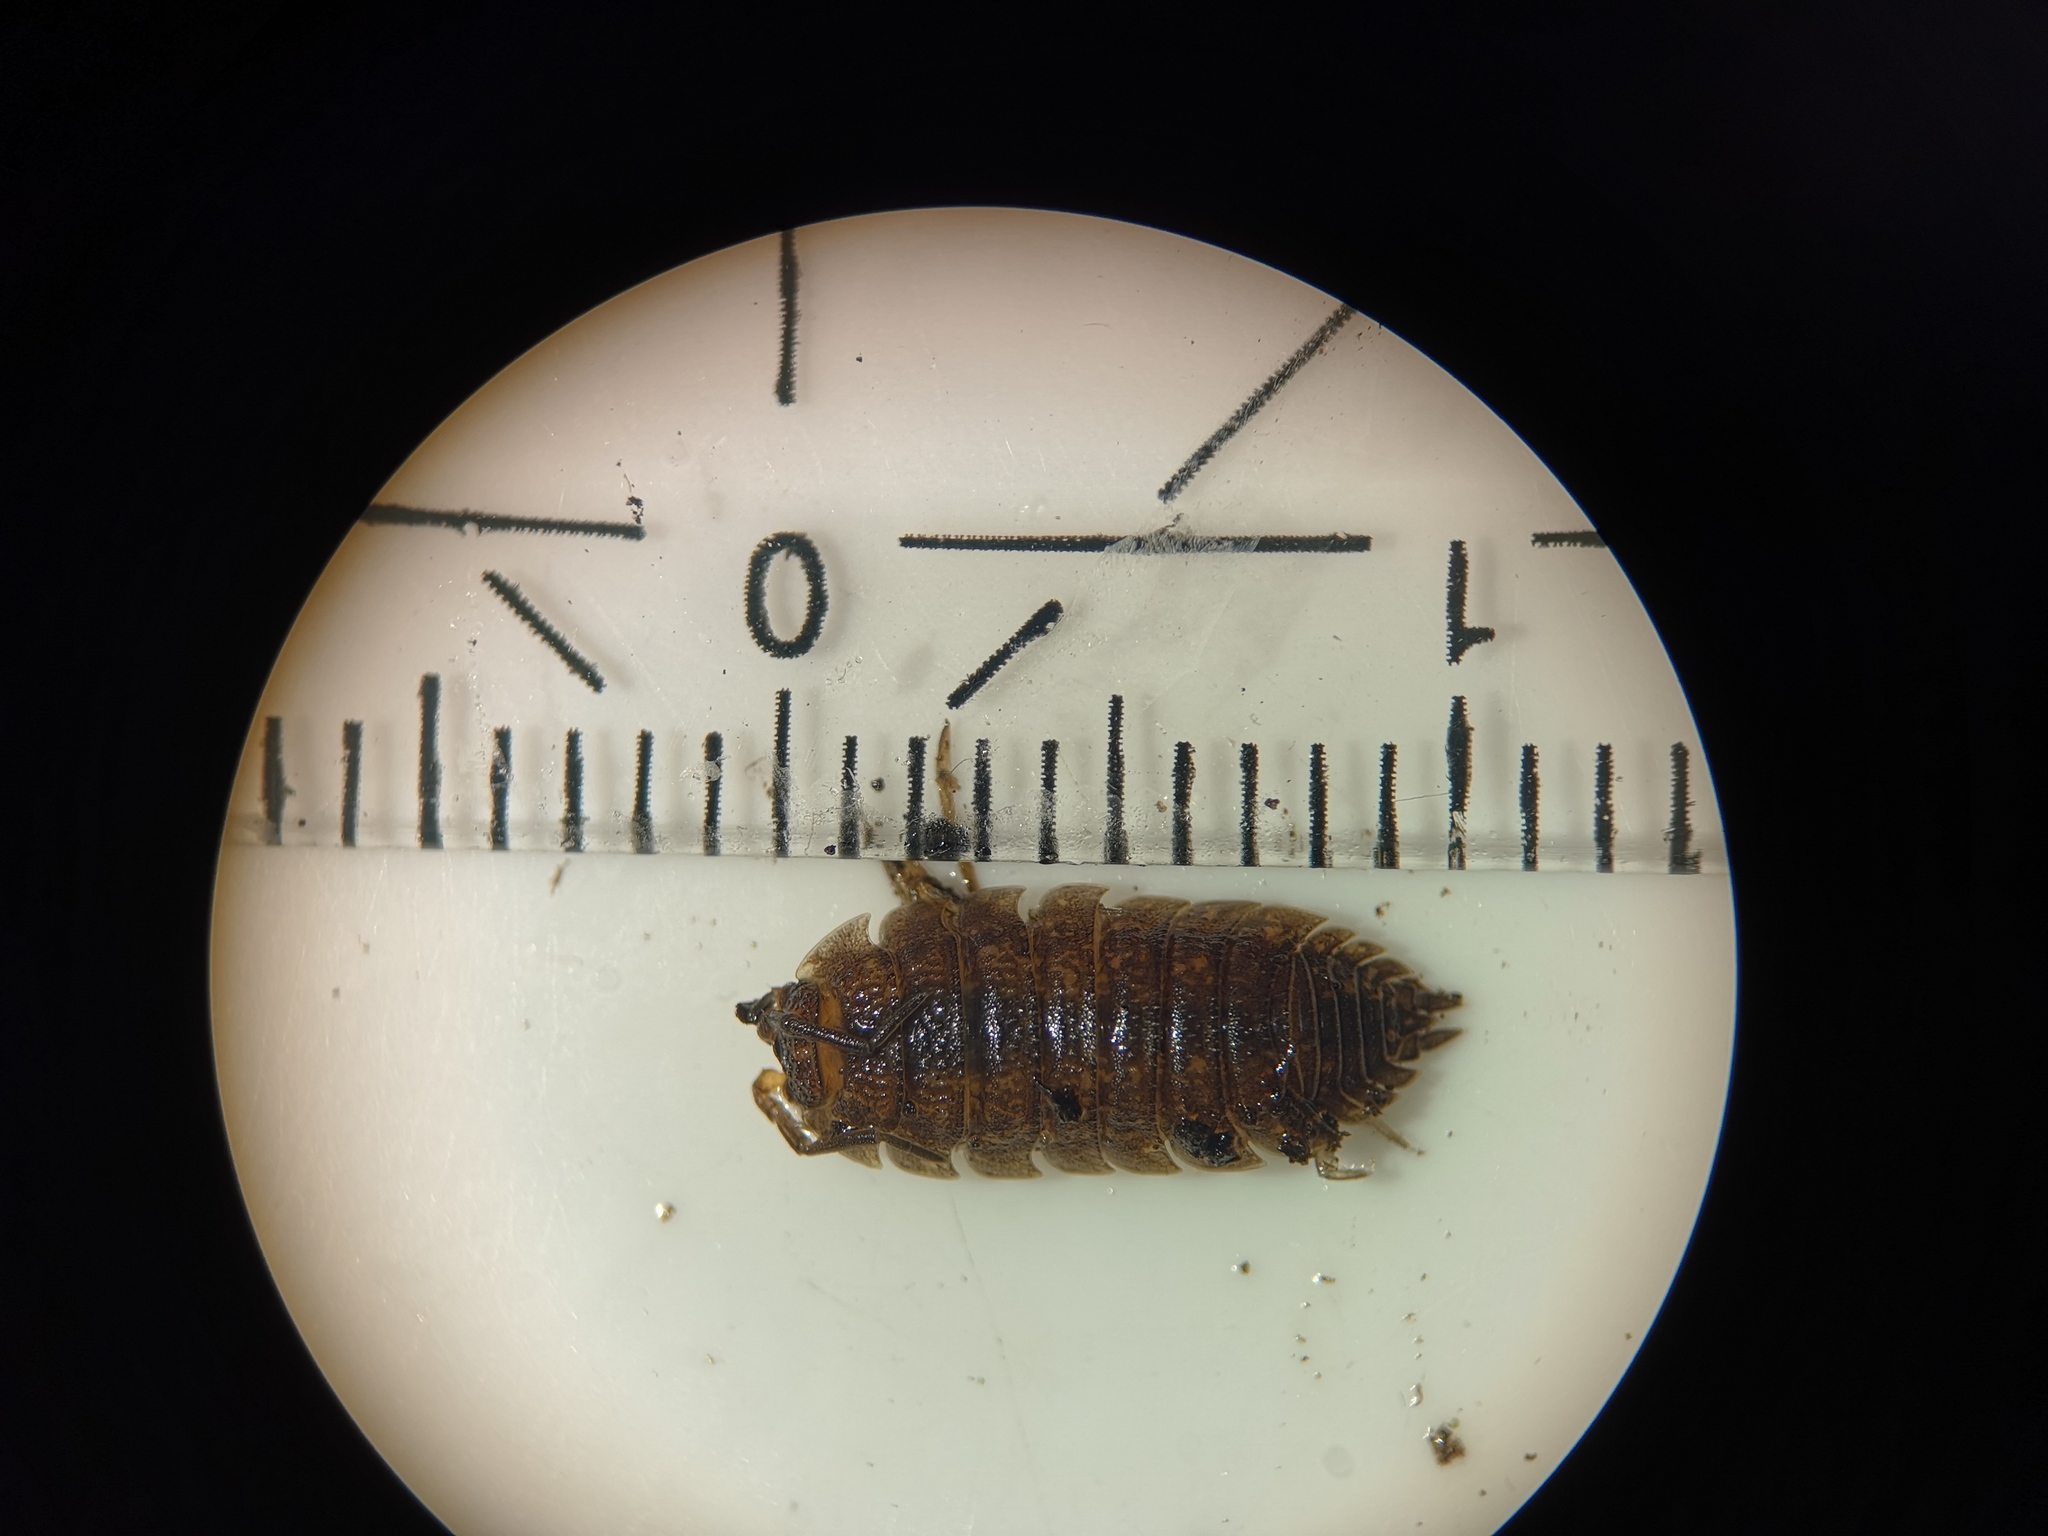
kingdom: Animalia
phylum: Arthropoda
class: Malacostraca
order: Isopoda
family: Porcellionidae
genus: Porcellio
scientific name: Porcellio scaber
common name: Common rough woodlouse
